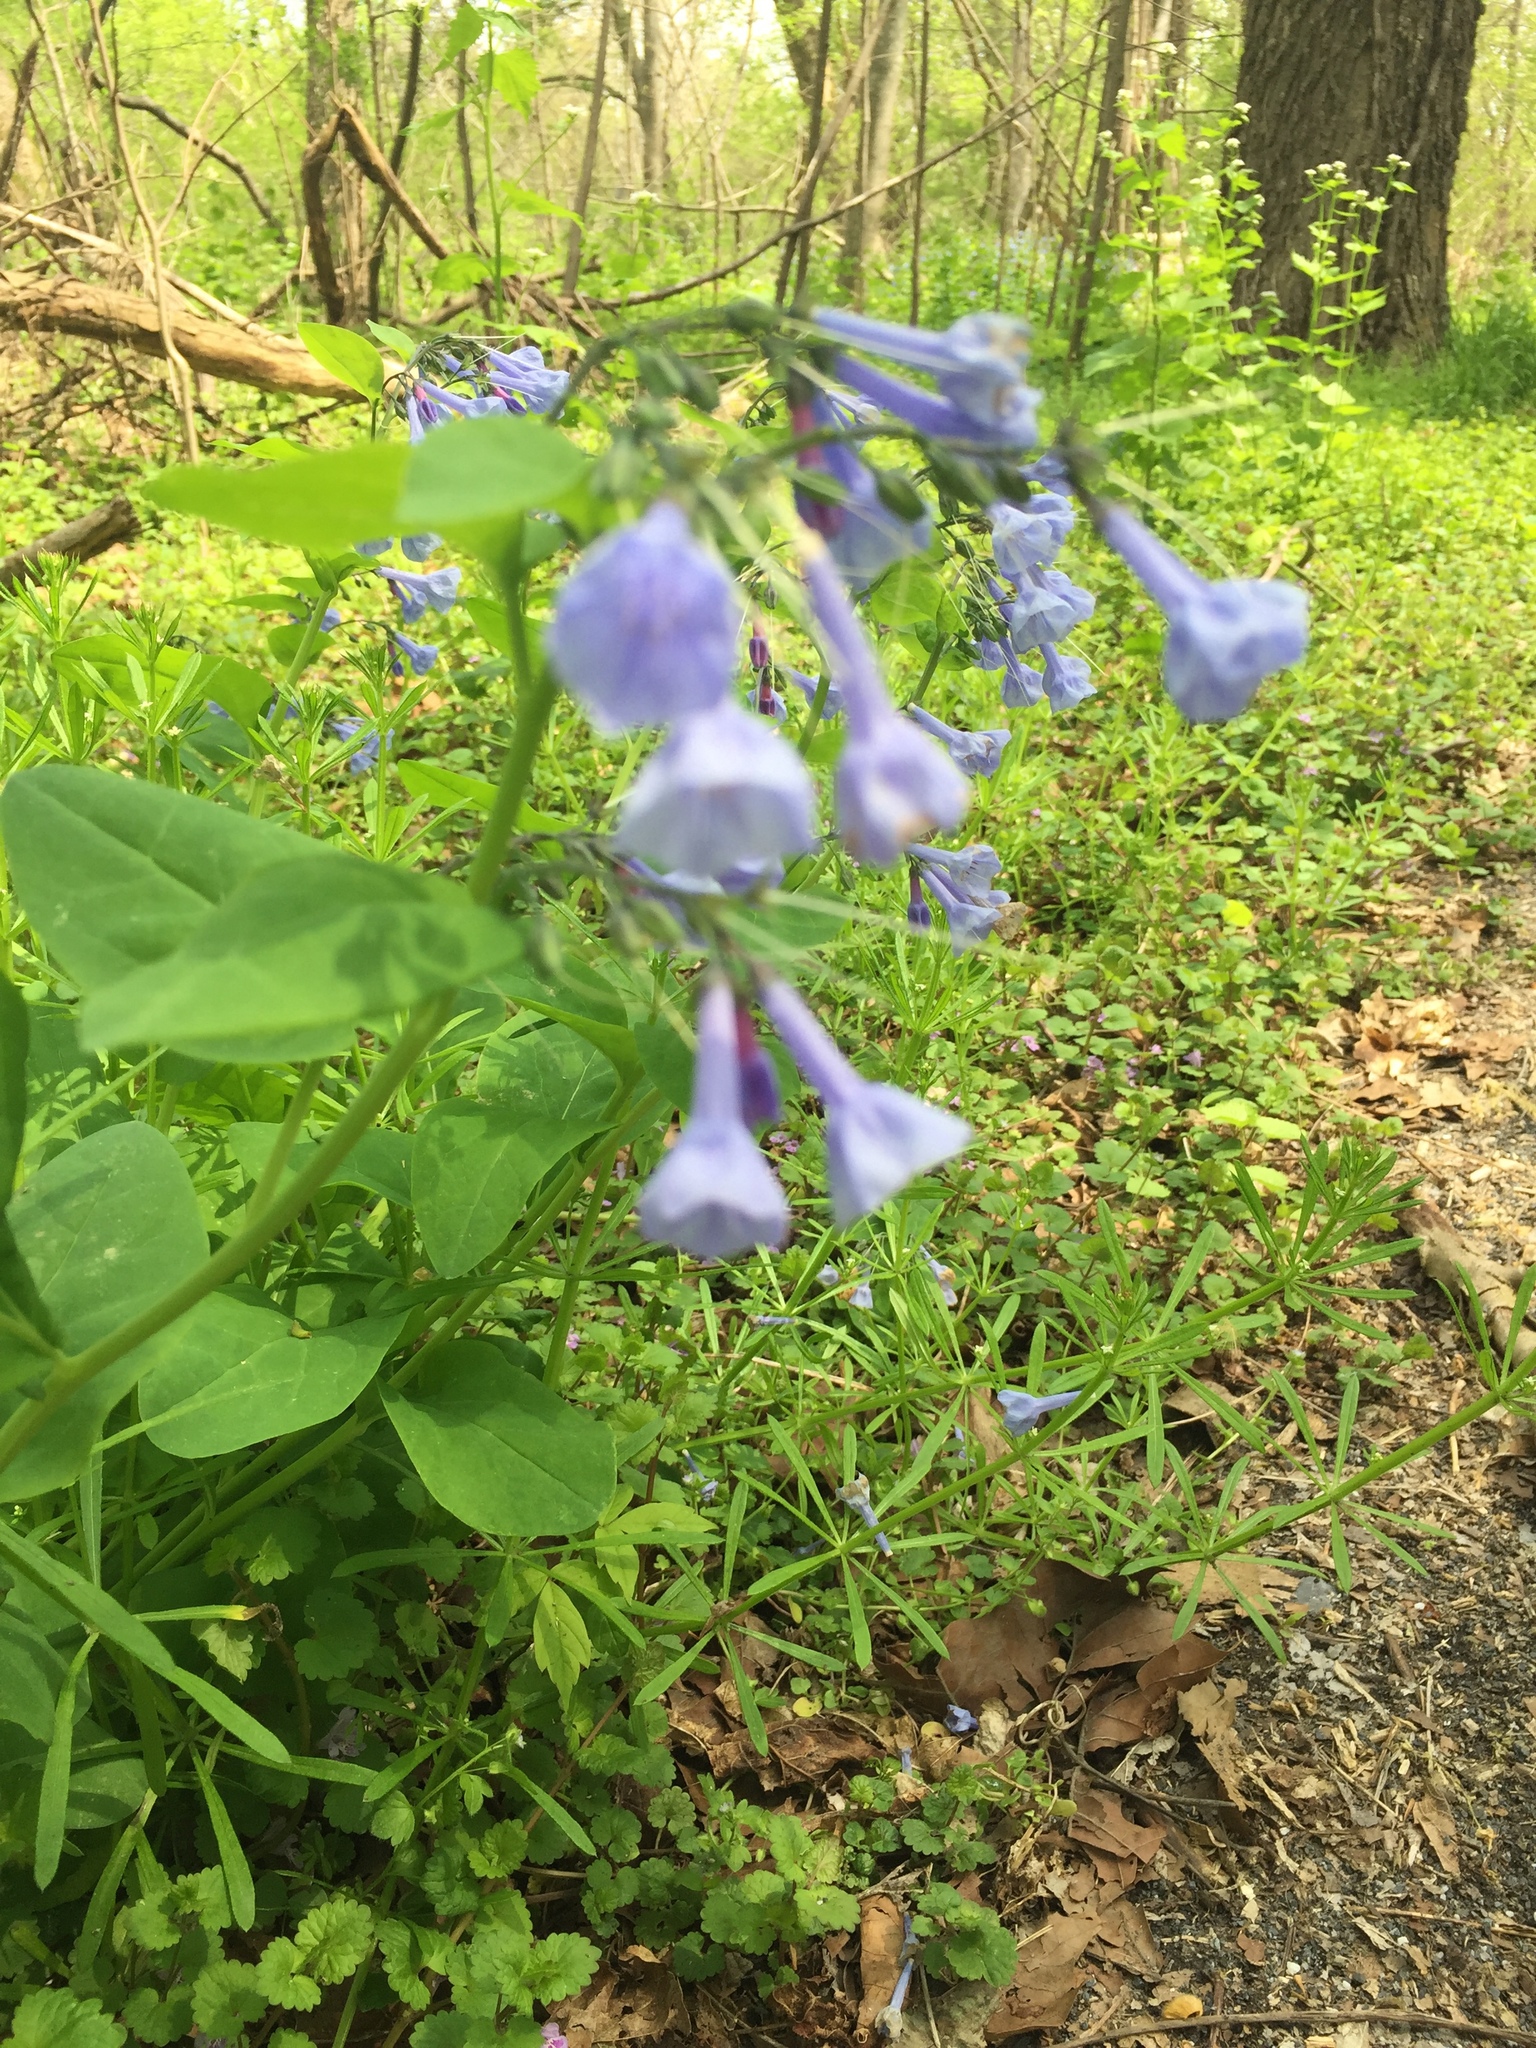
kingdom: Plantae
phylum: Tracheophyta
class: Magnoliopsida
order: Boraginales
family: Boraginaceae
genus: Mertensia
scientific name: Mertensia virginica
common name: Virginia bluebells
